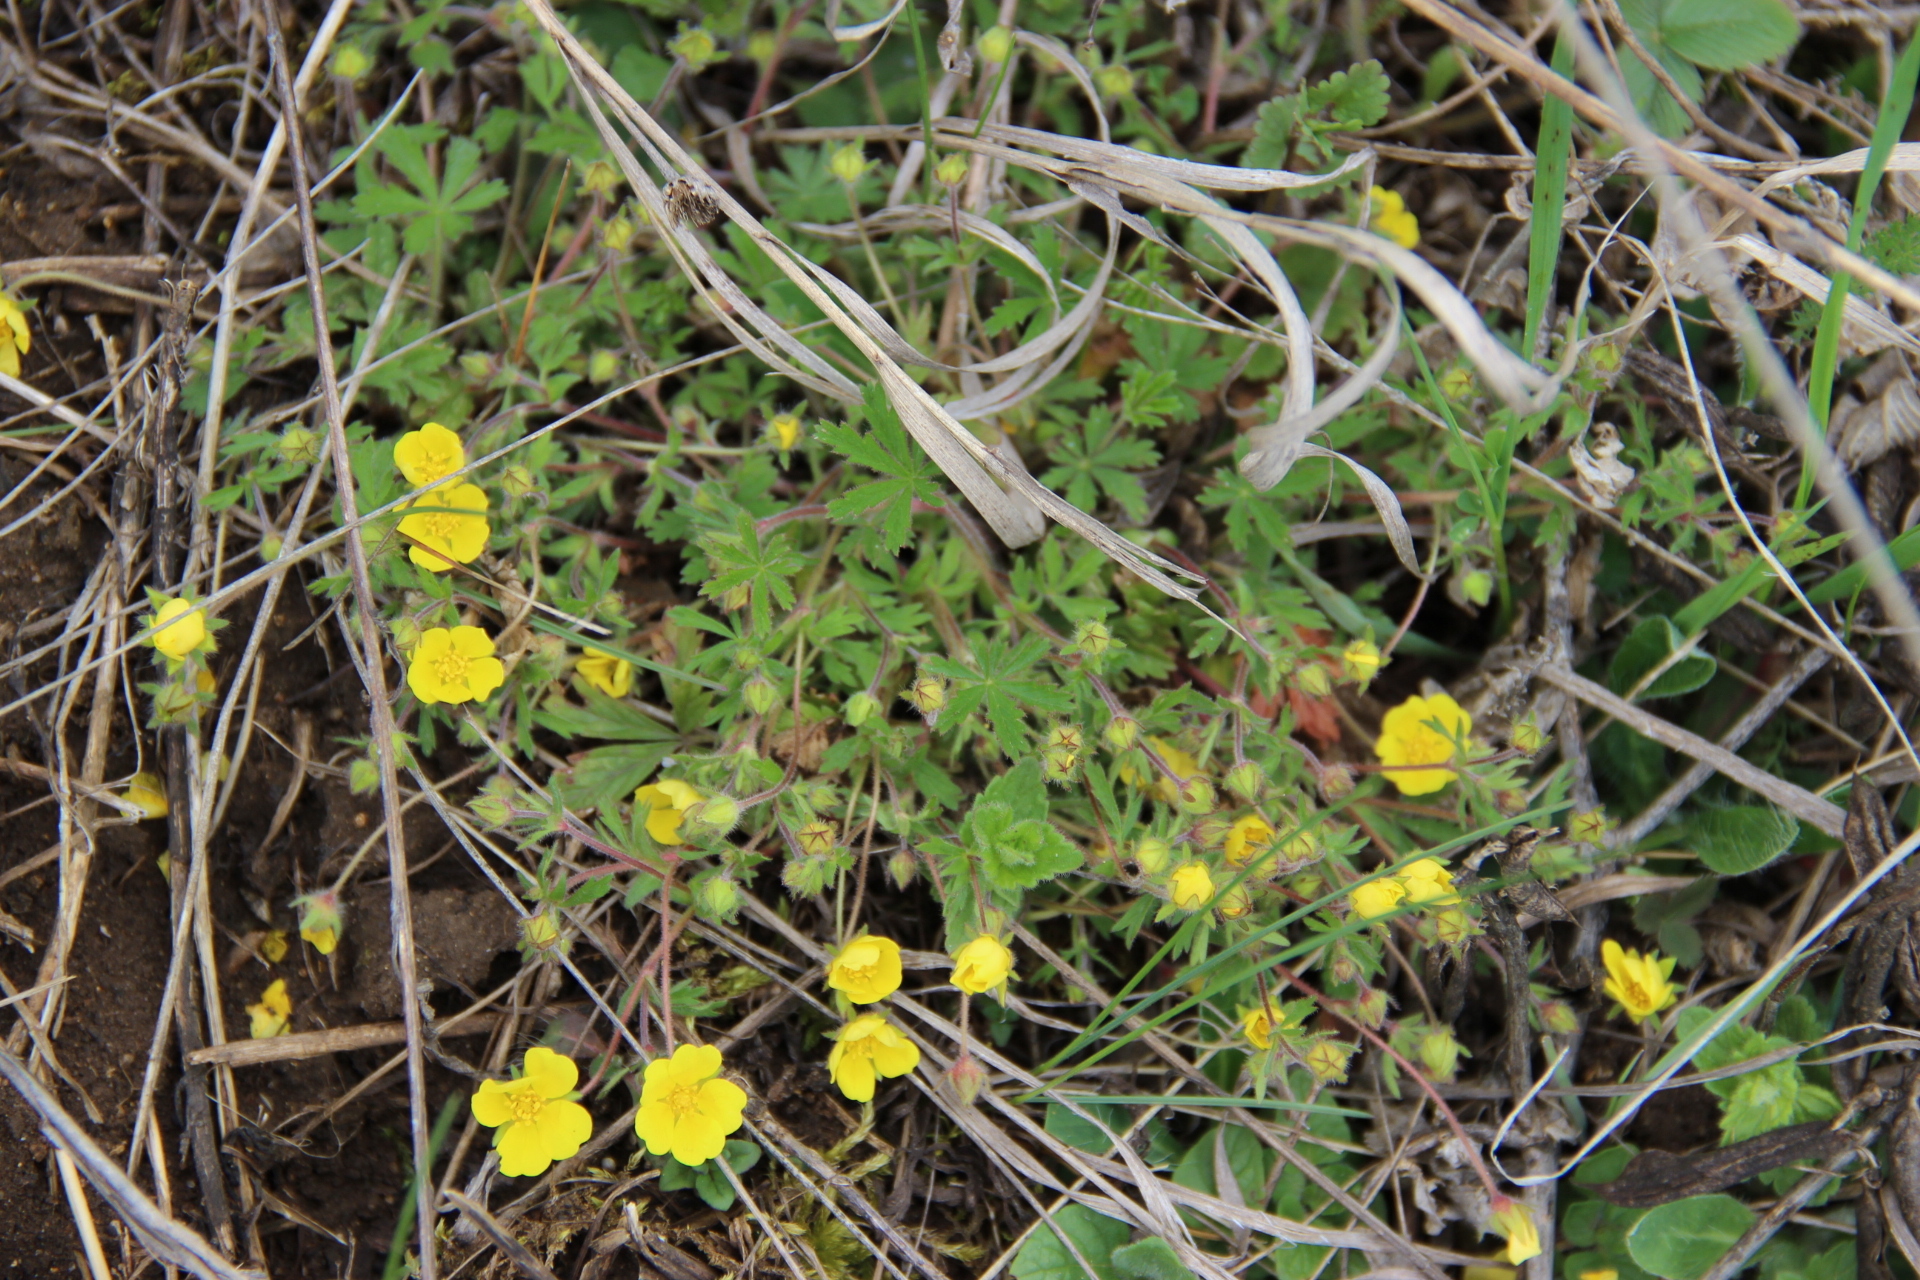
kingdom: Plantae
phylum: Tracheophyta
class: Magnoliopsida
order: Rosales
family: Rosaceae
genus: Potentilla
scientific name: Potentilla humifusa
